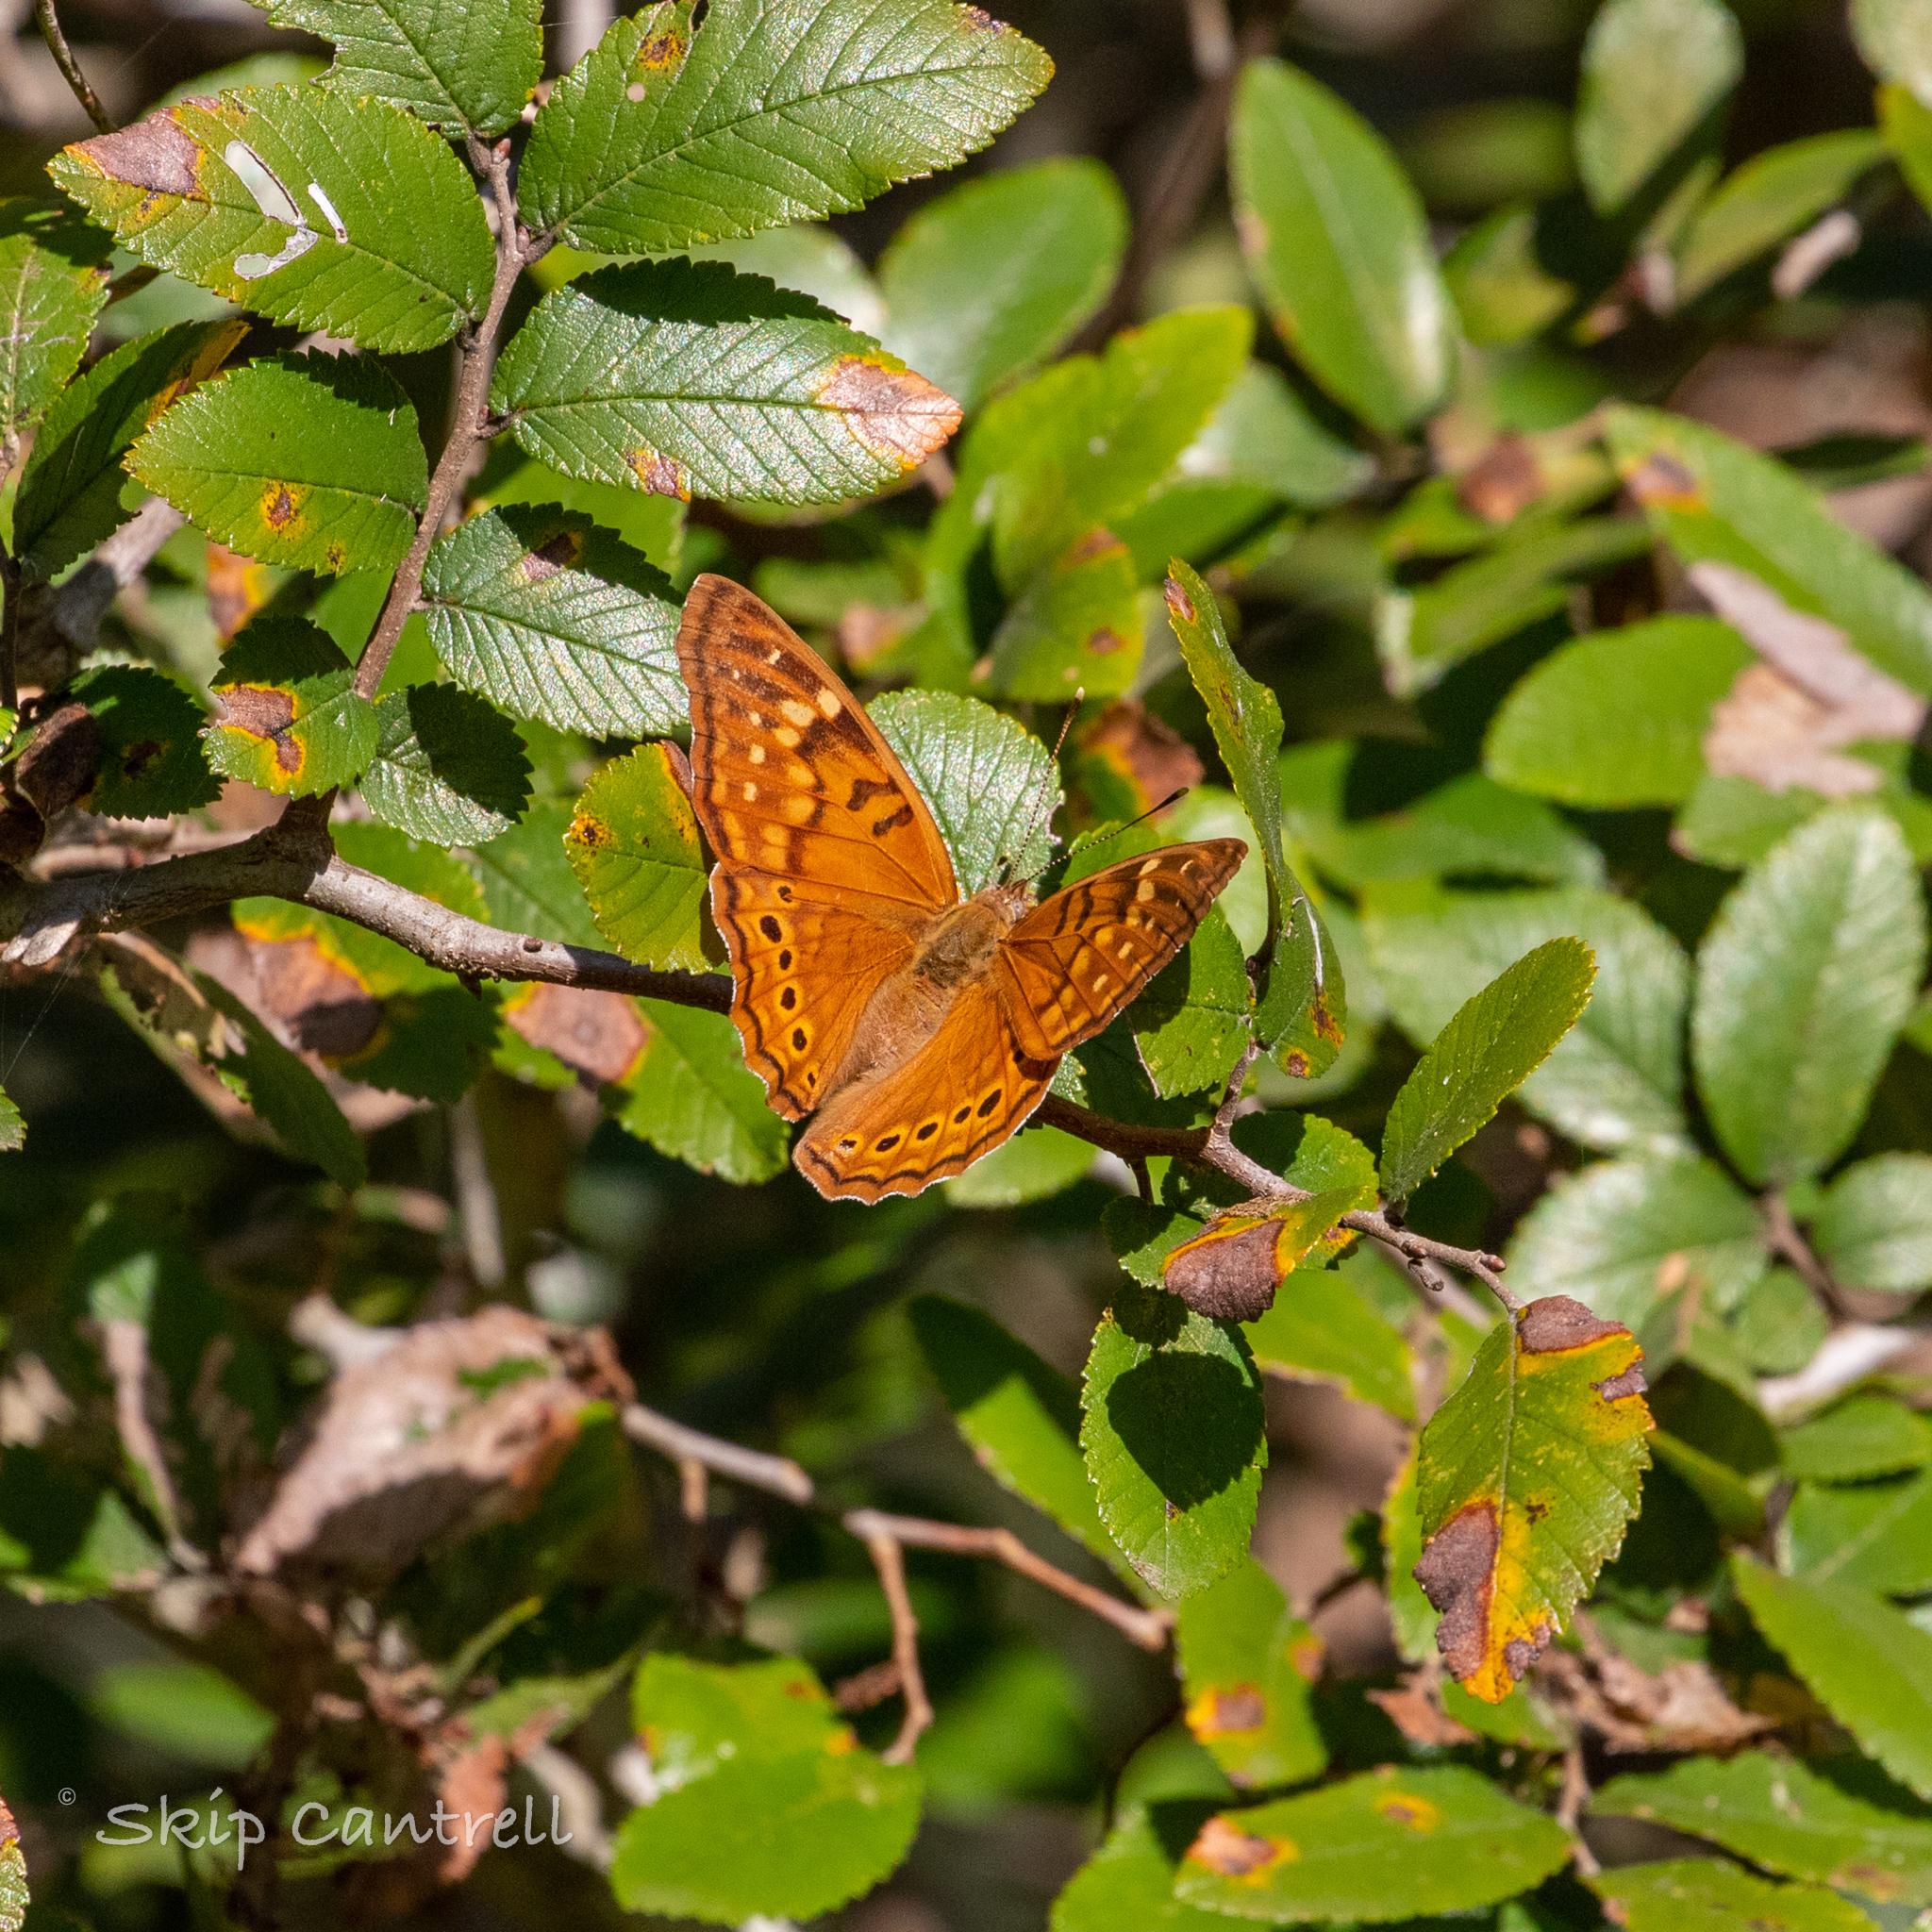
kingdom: Animalia
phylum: Arthropoda
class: Insecta
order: Lepidoptera
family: Nymphalidae
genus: Asterocampa
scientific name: Asterocampa clyton
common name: Tawny emperor
